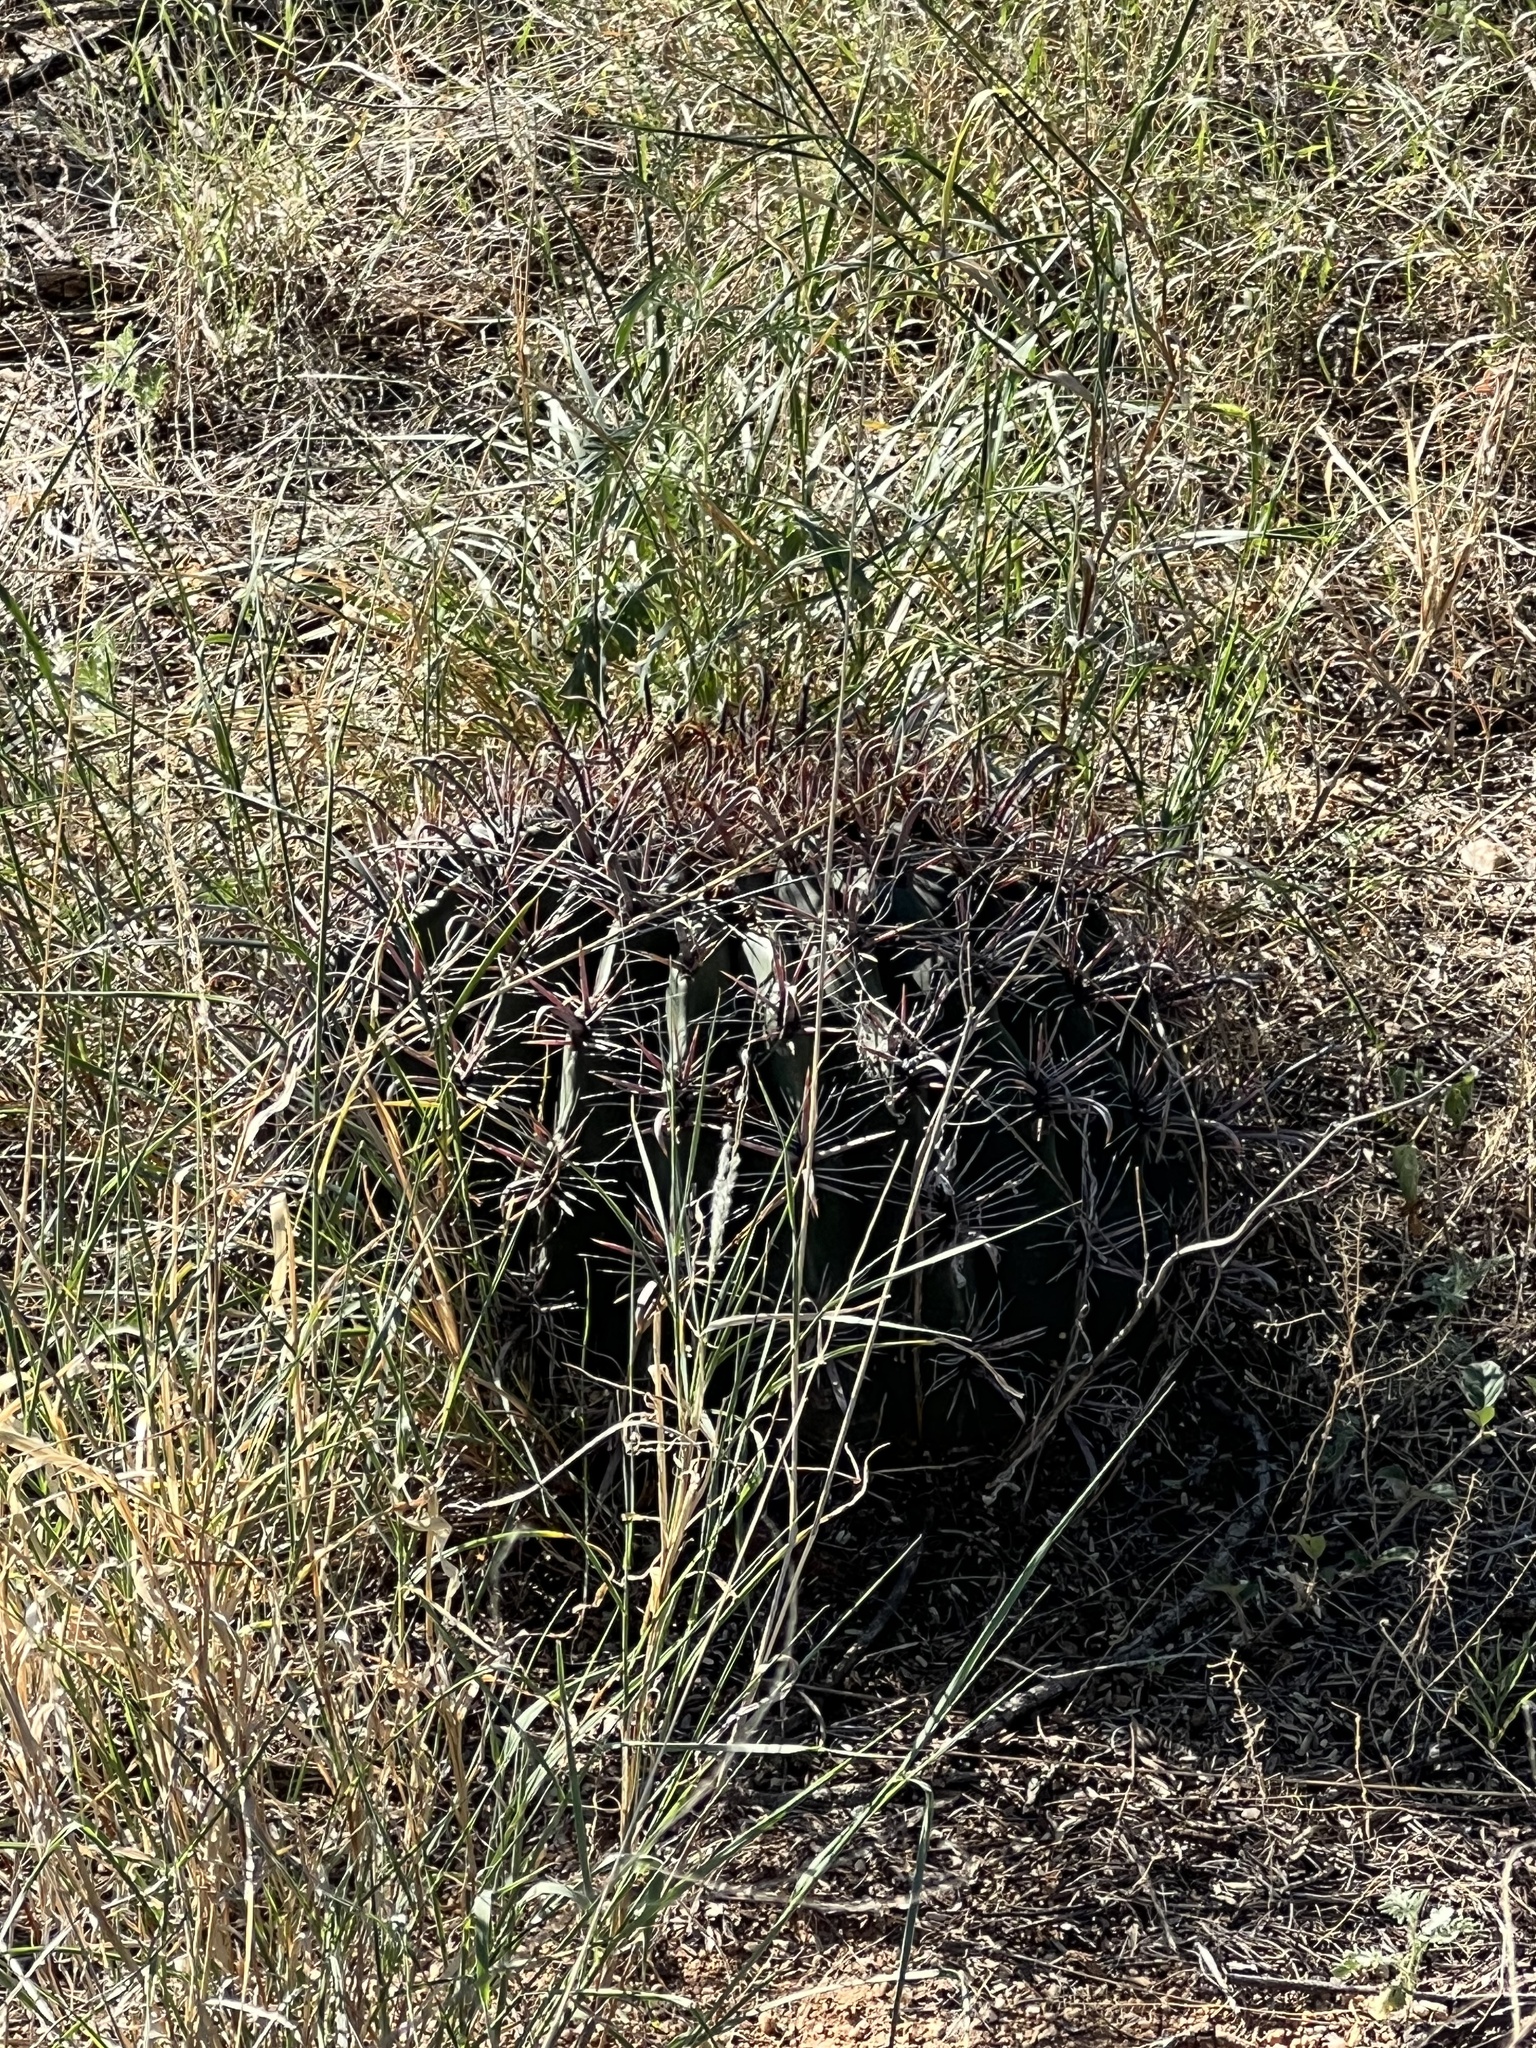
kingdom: Plantae
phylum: Tracheophyta
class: Magnoliopsida
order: Caryophyllales
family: Cactaceae
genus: Ferocactus
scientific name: Ferocactus wislizeni
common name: Candy barrel cactus
